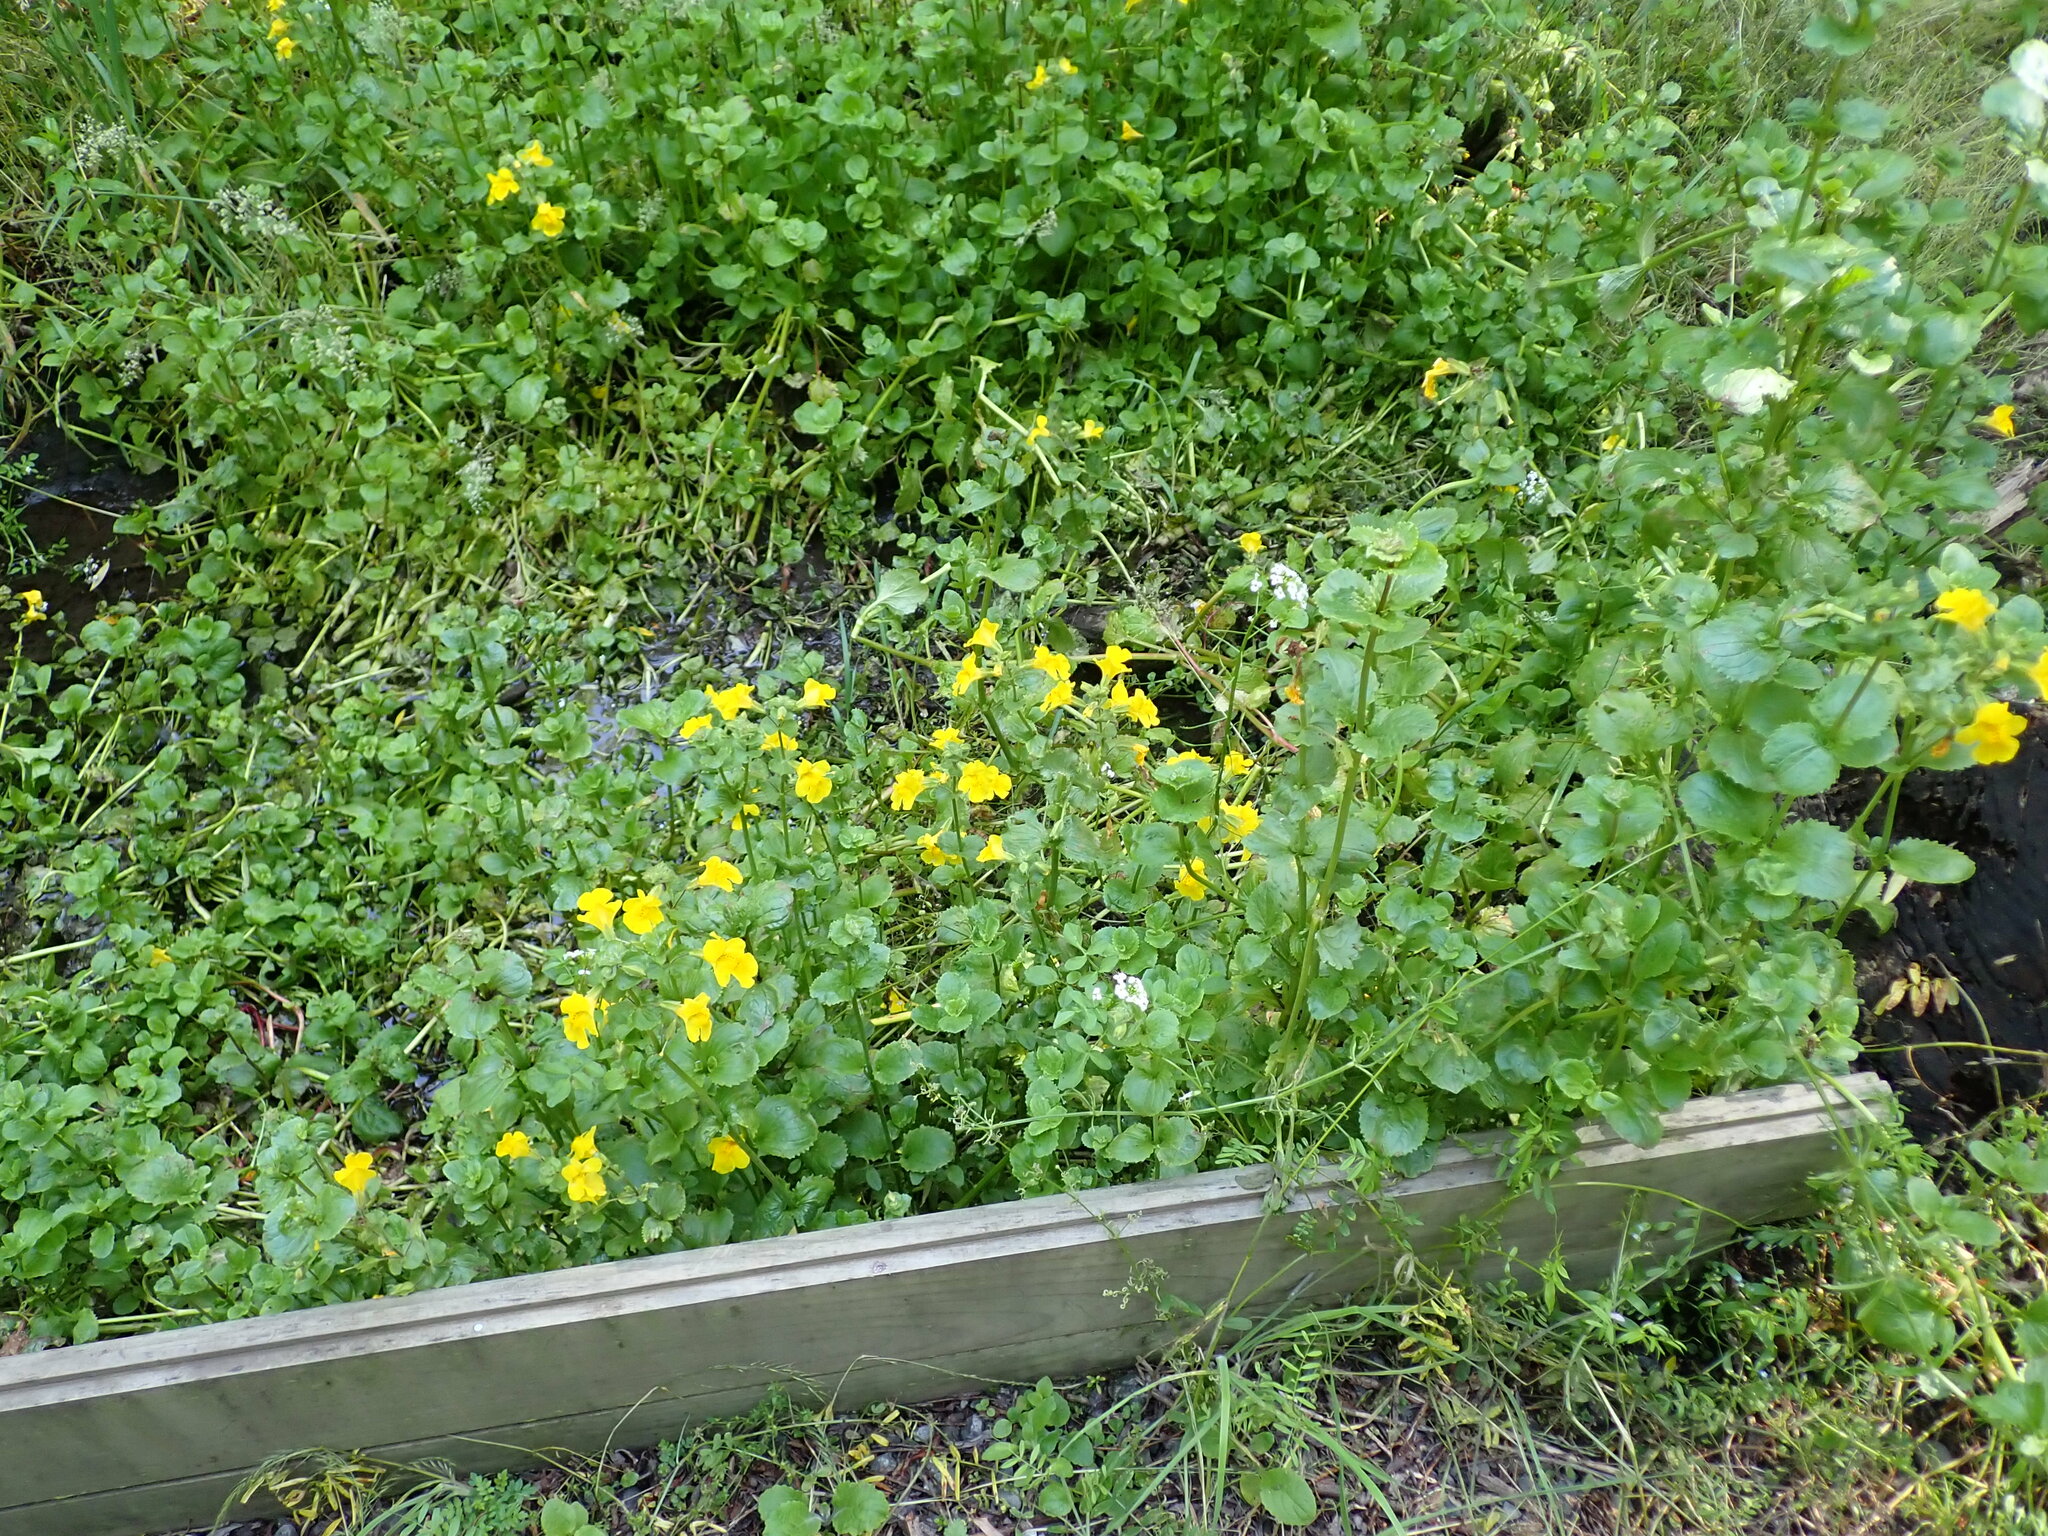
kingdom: Plantae
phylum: Tracheophyta
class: Magnoliopsida
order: Lamiales
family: Phrymaceae
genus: Erythranthe
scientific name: Erythranthe guttata
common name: Monkeyflower
